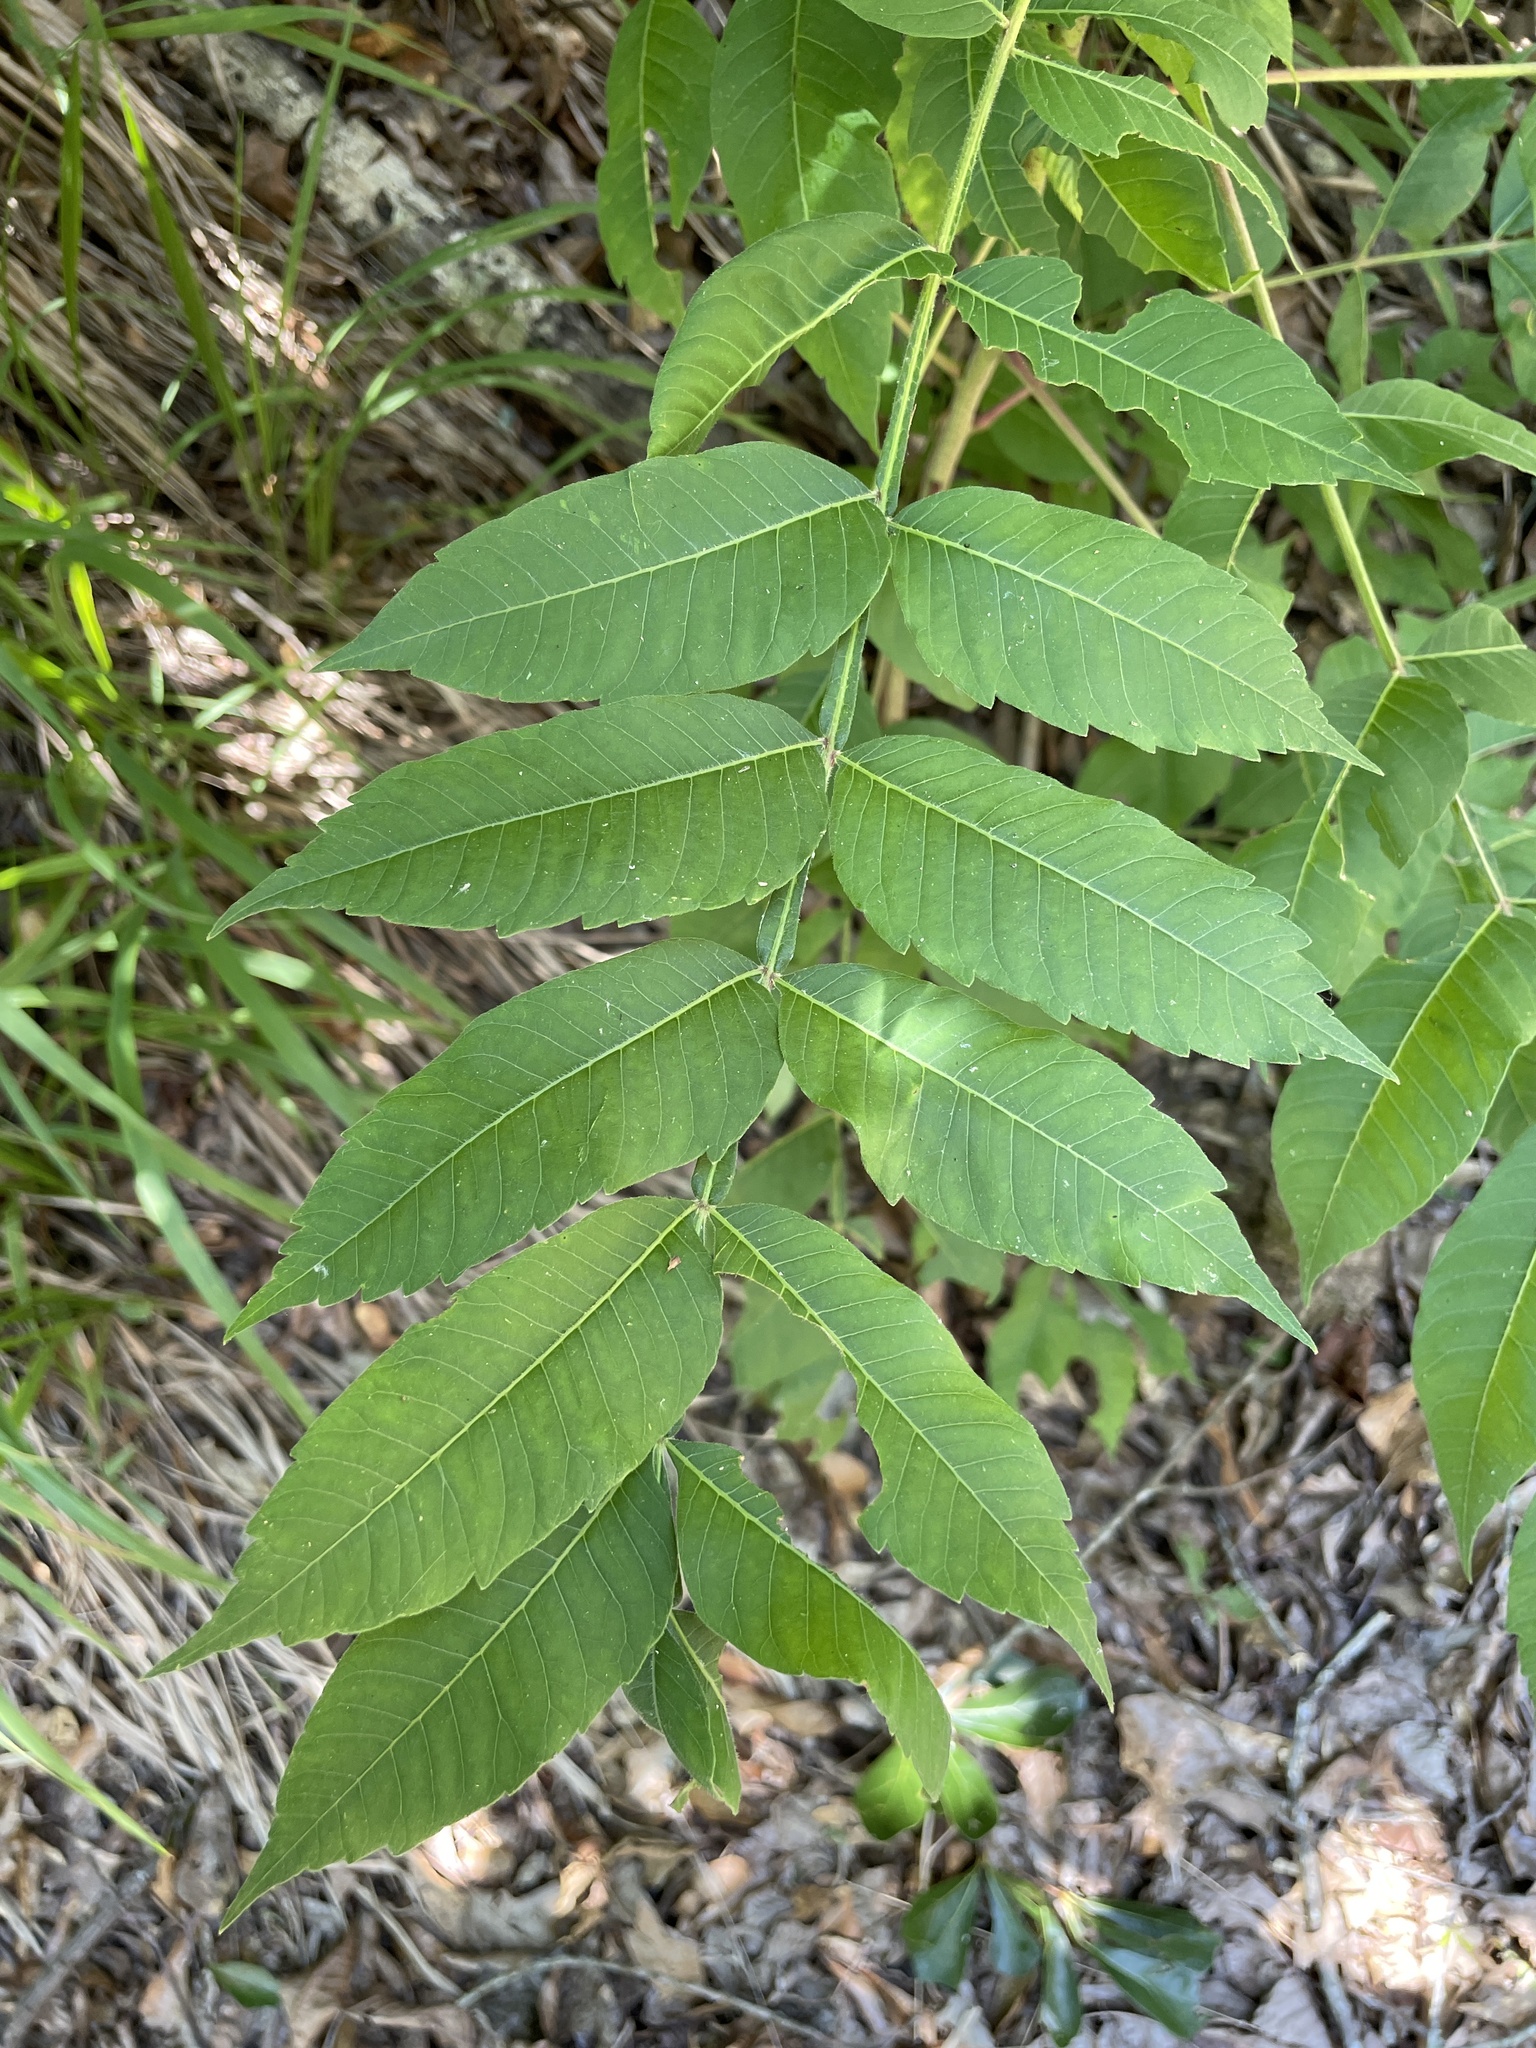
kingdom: Plantae
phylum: Tracheophyta
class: Magnoliopsida
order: Sapindales
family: Anacardiaceae
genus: Rhus
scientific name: Rhus copallina
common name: Shining sumac
